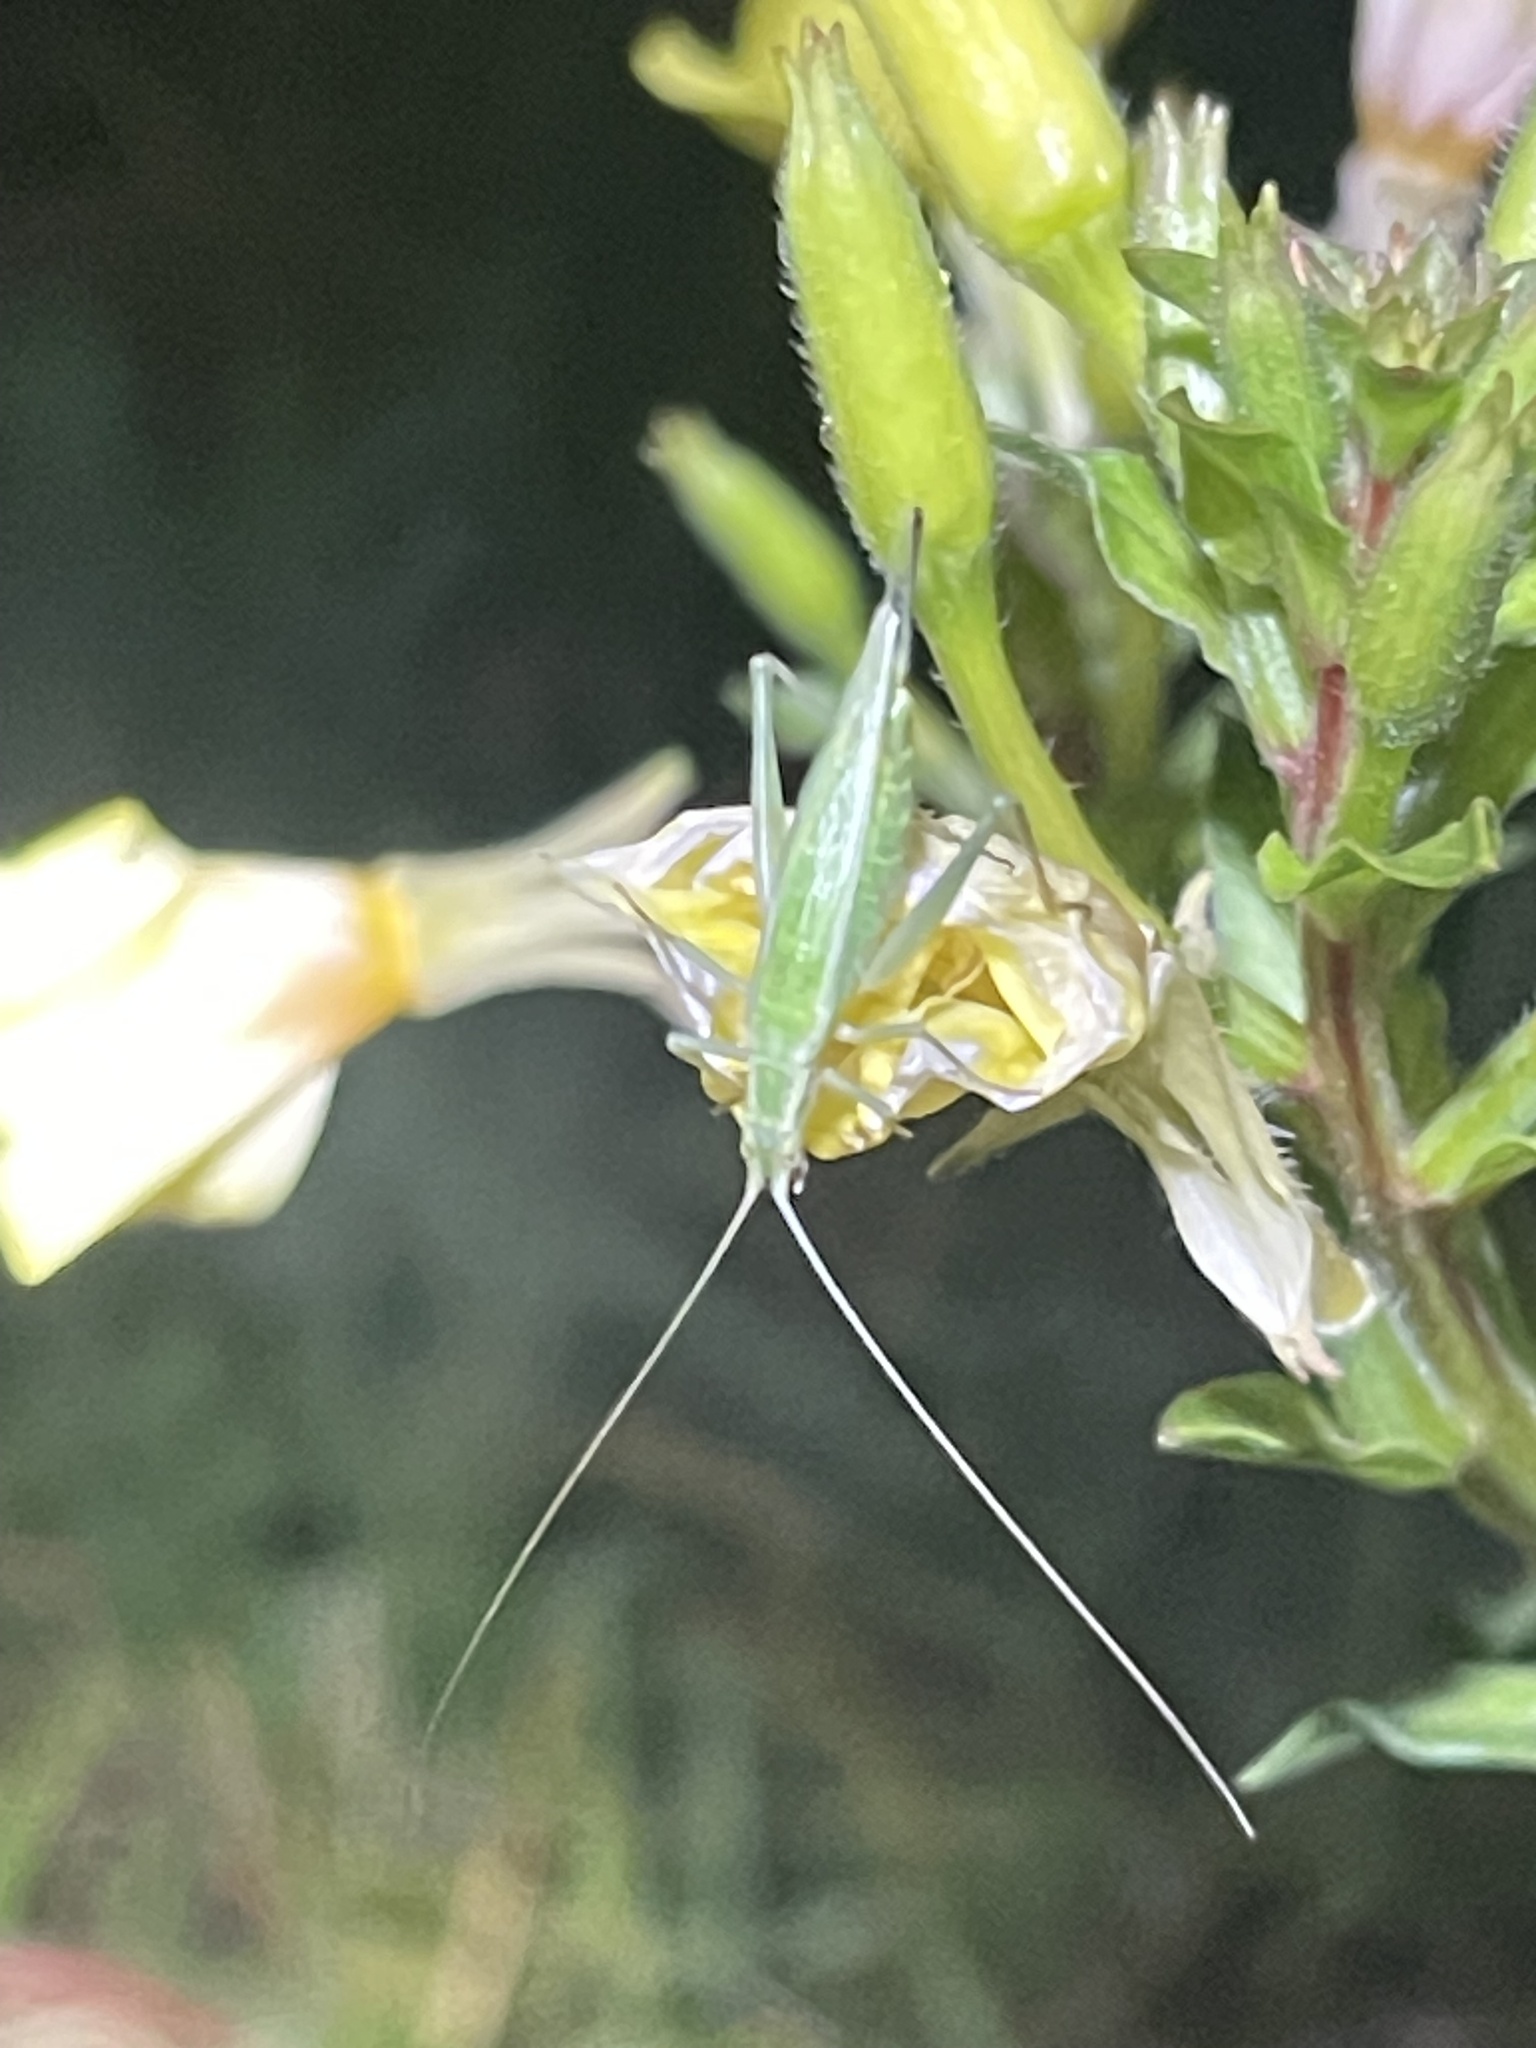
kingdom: Animalia
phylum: Arthropoda
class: Insecta
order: Orthoptera
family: Gryllidae
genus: Oecanthus
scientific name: Oecanthus quadripunctatus
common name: Four-spotted tree cricket
